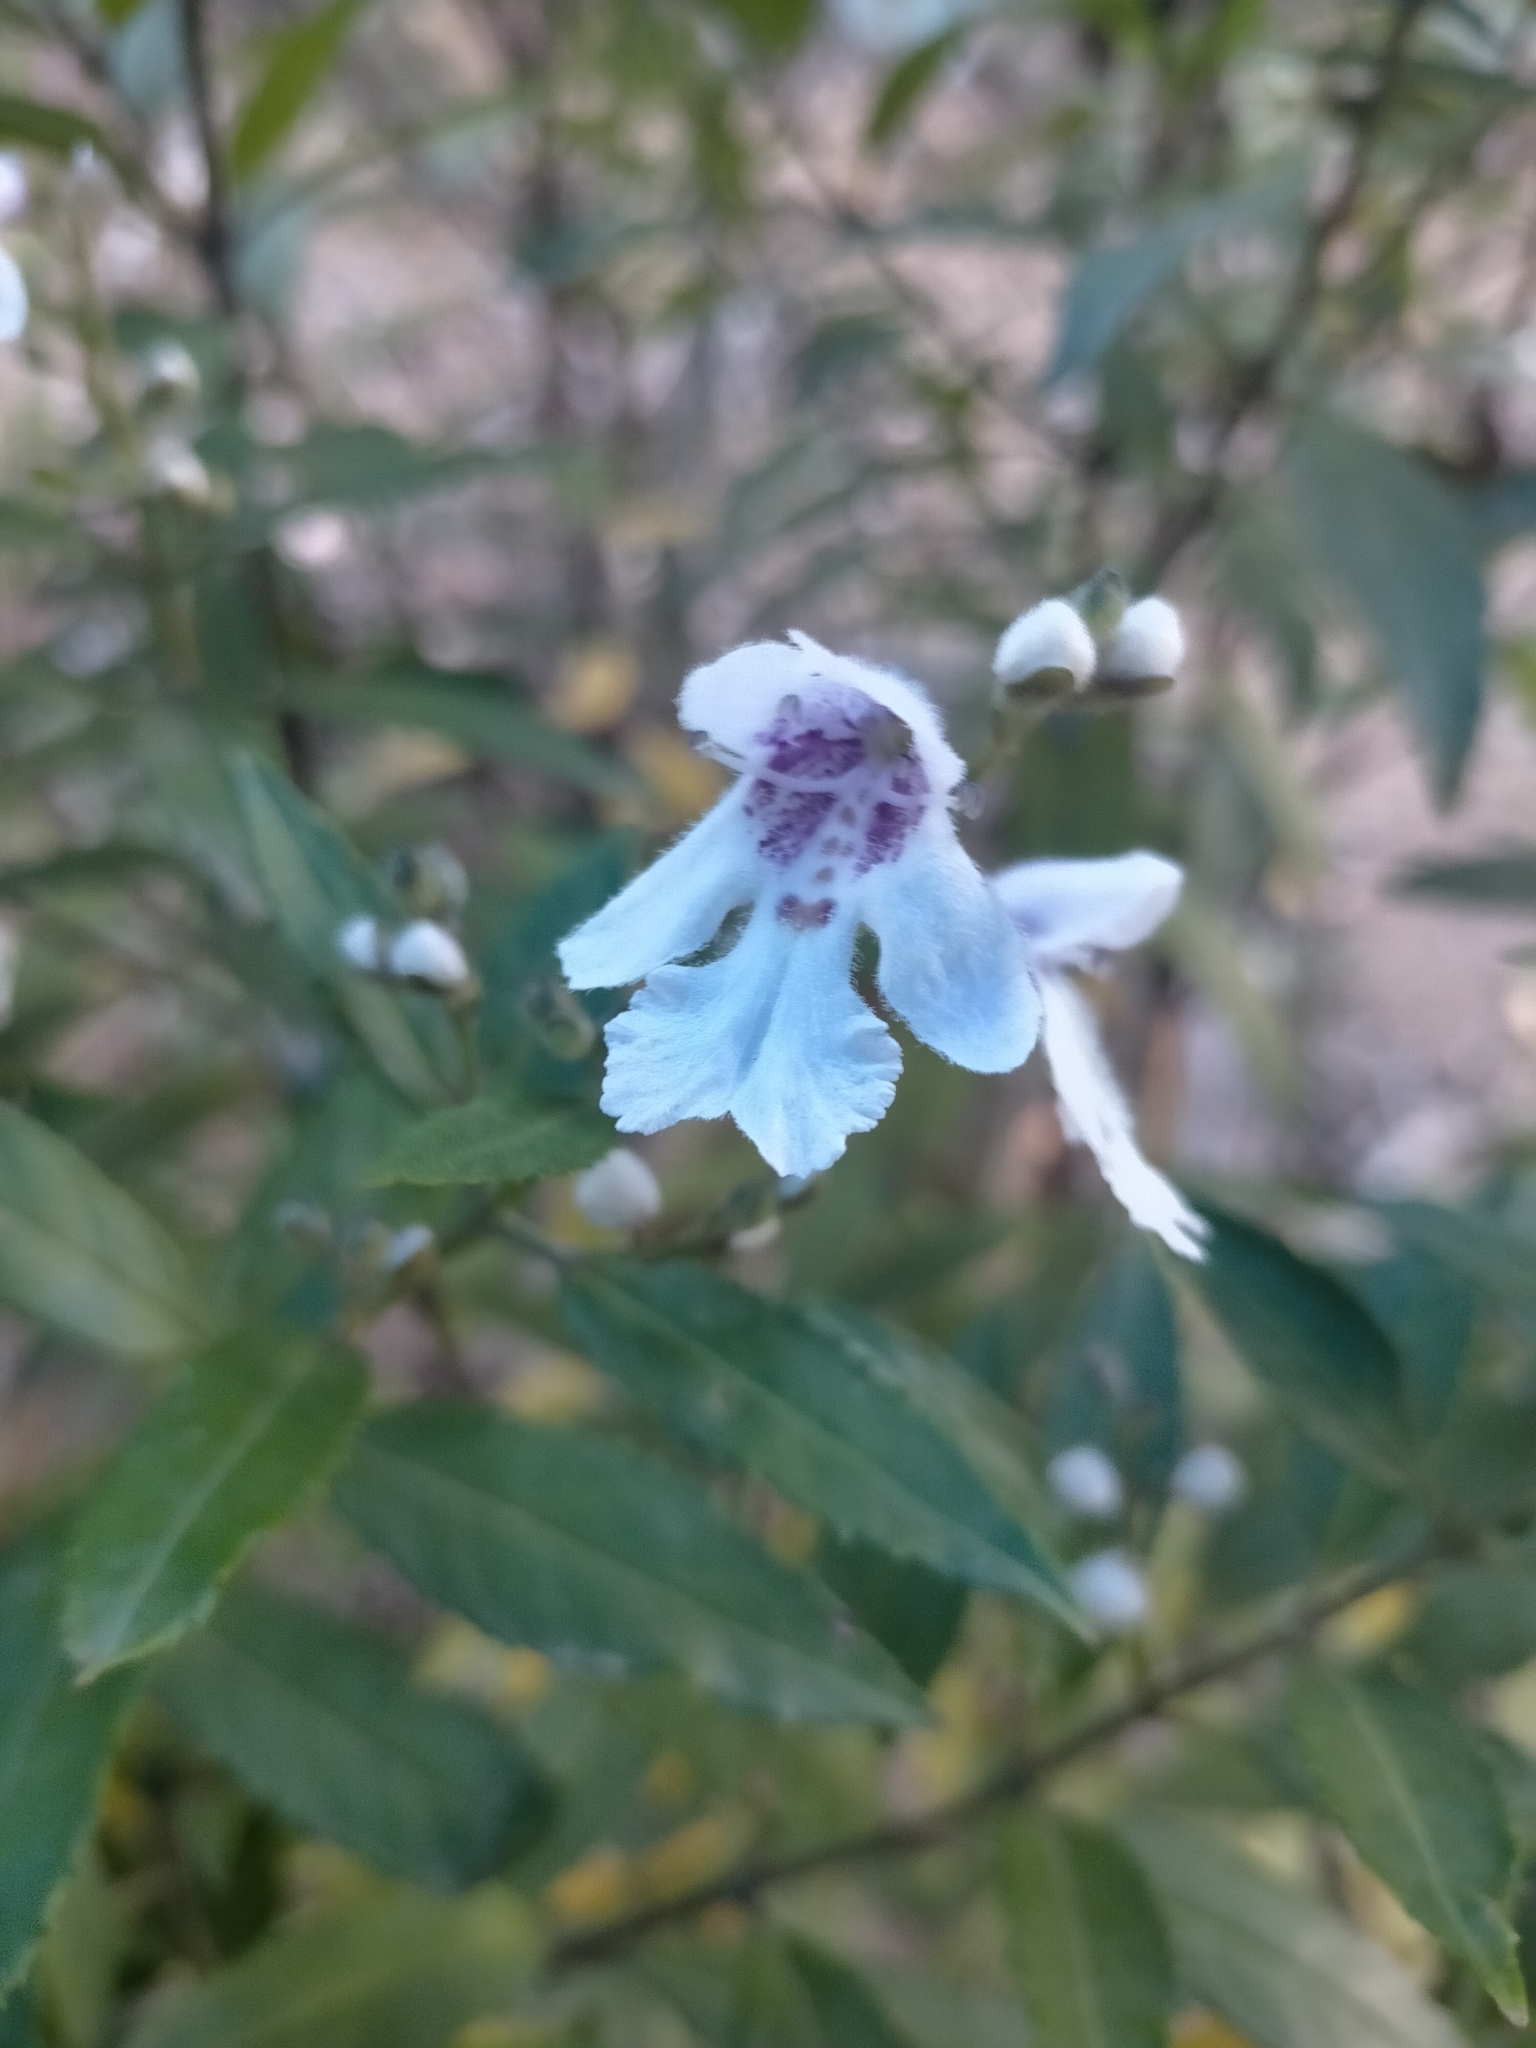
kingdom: Plantae
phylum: Tracheophyta
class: Magnoliopsida
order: Lamiales
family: Lamiaceae
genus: Prostanthera
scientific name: Prostanthera lasianthos
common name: Mountain-lilac
